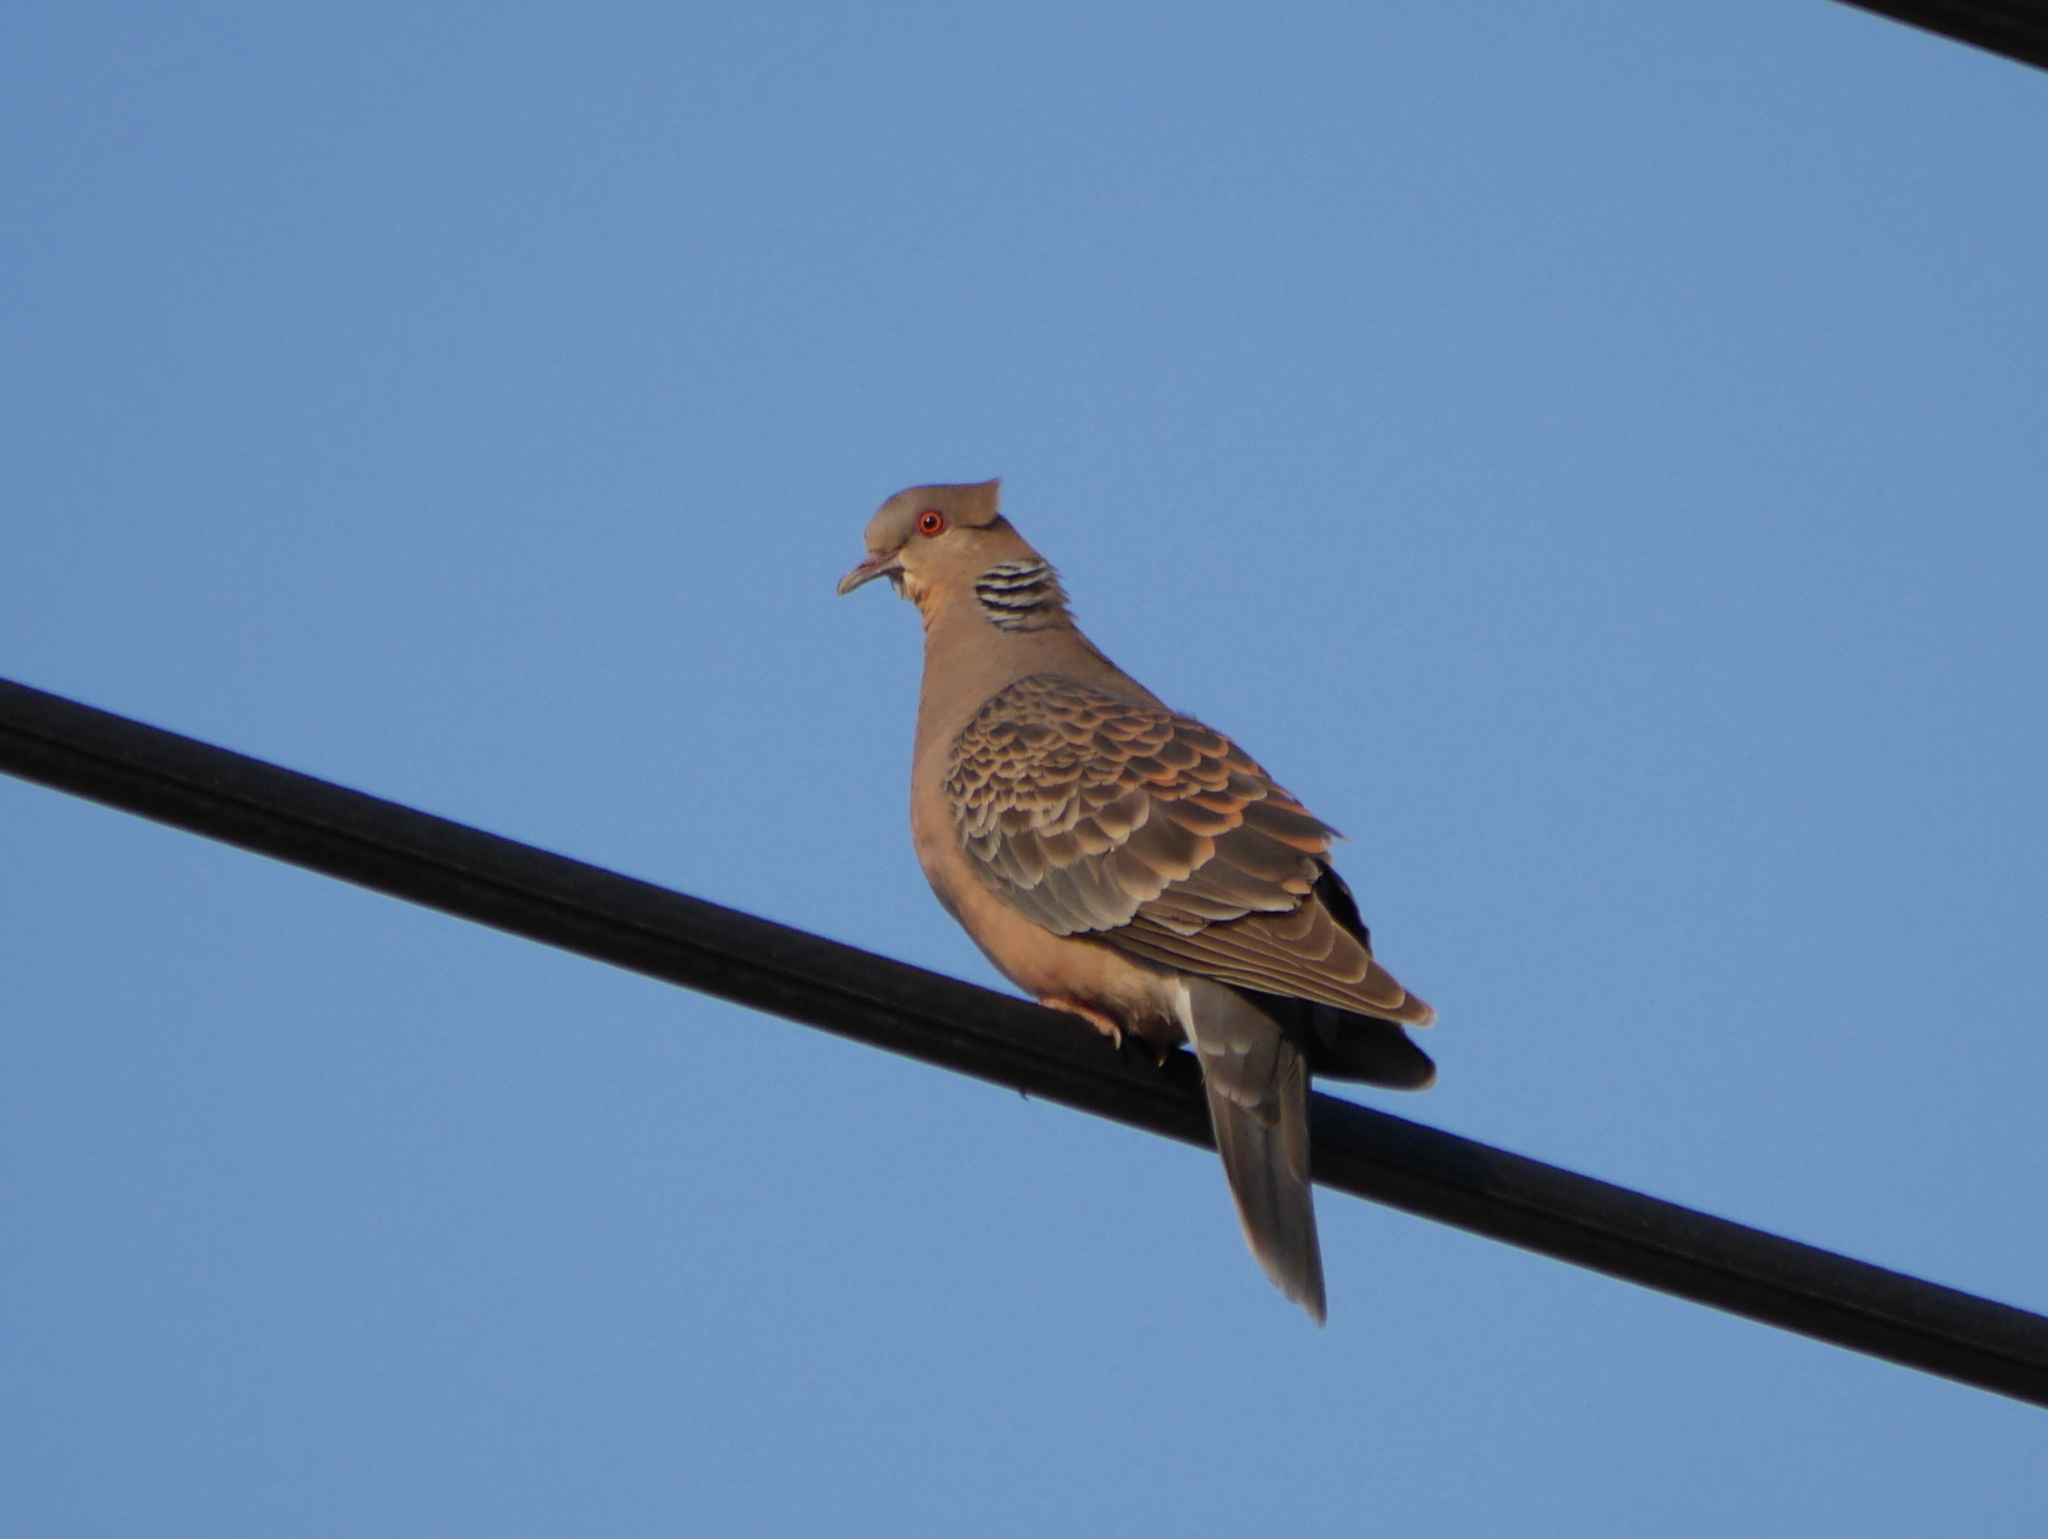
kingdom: Animalia
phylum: Chordata
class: Aves
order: Columbiformes
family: Columbidae
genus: Streptopelia
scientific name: Streptopelia orientalis
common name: Oriental turtle dove
